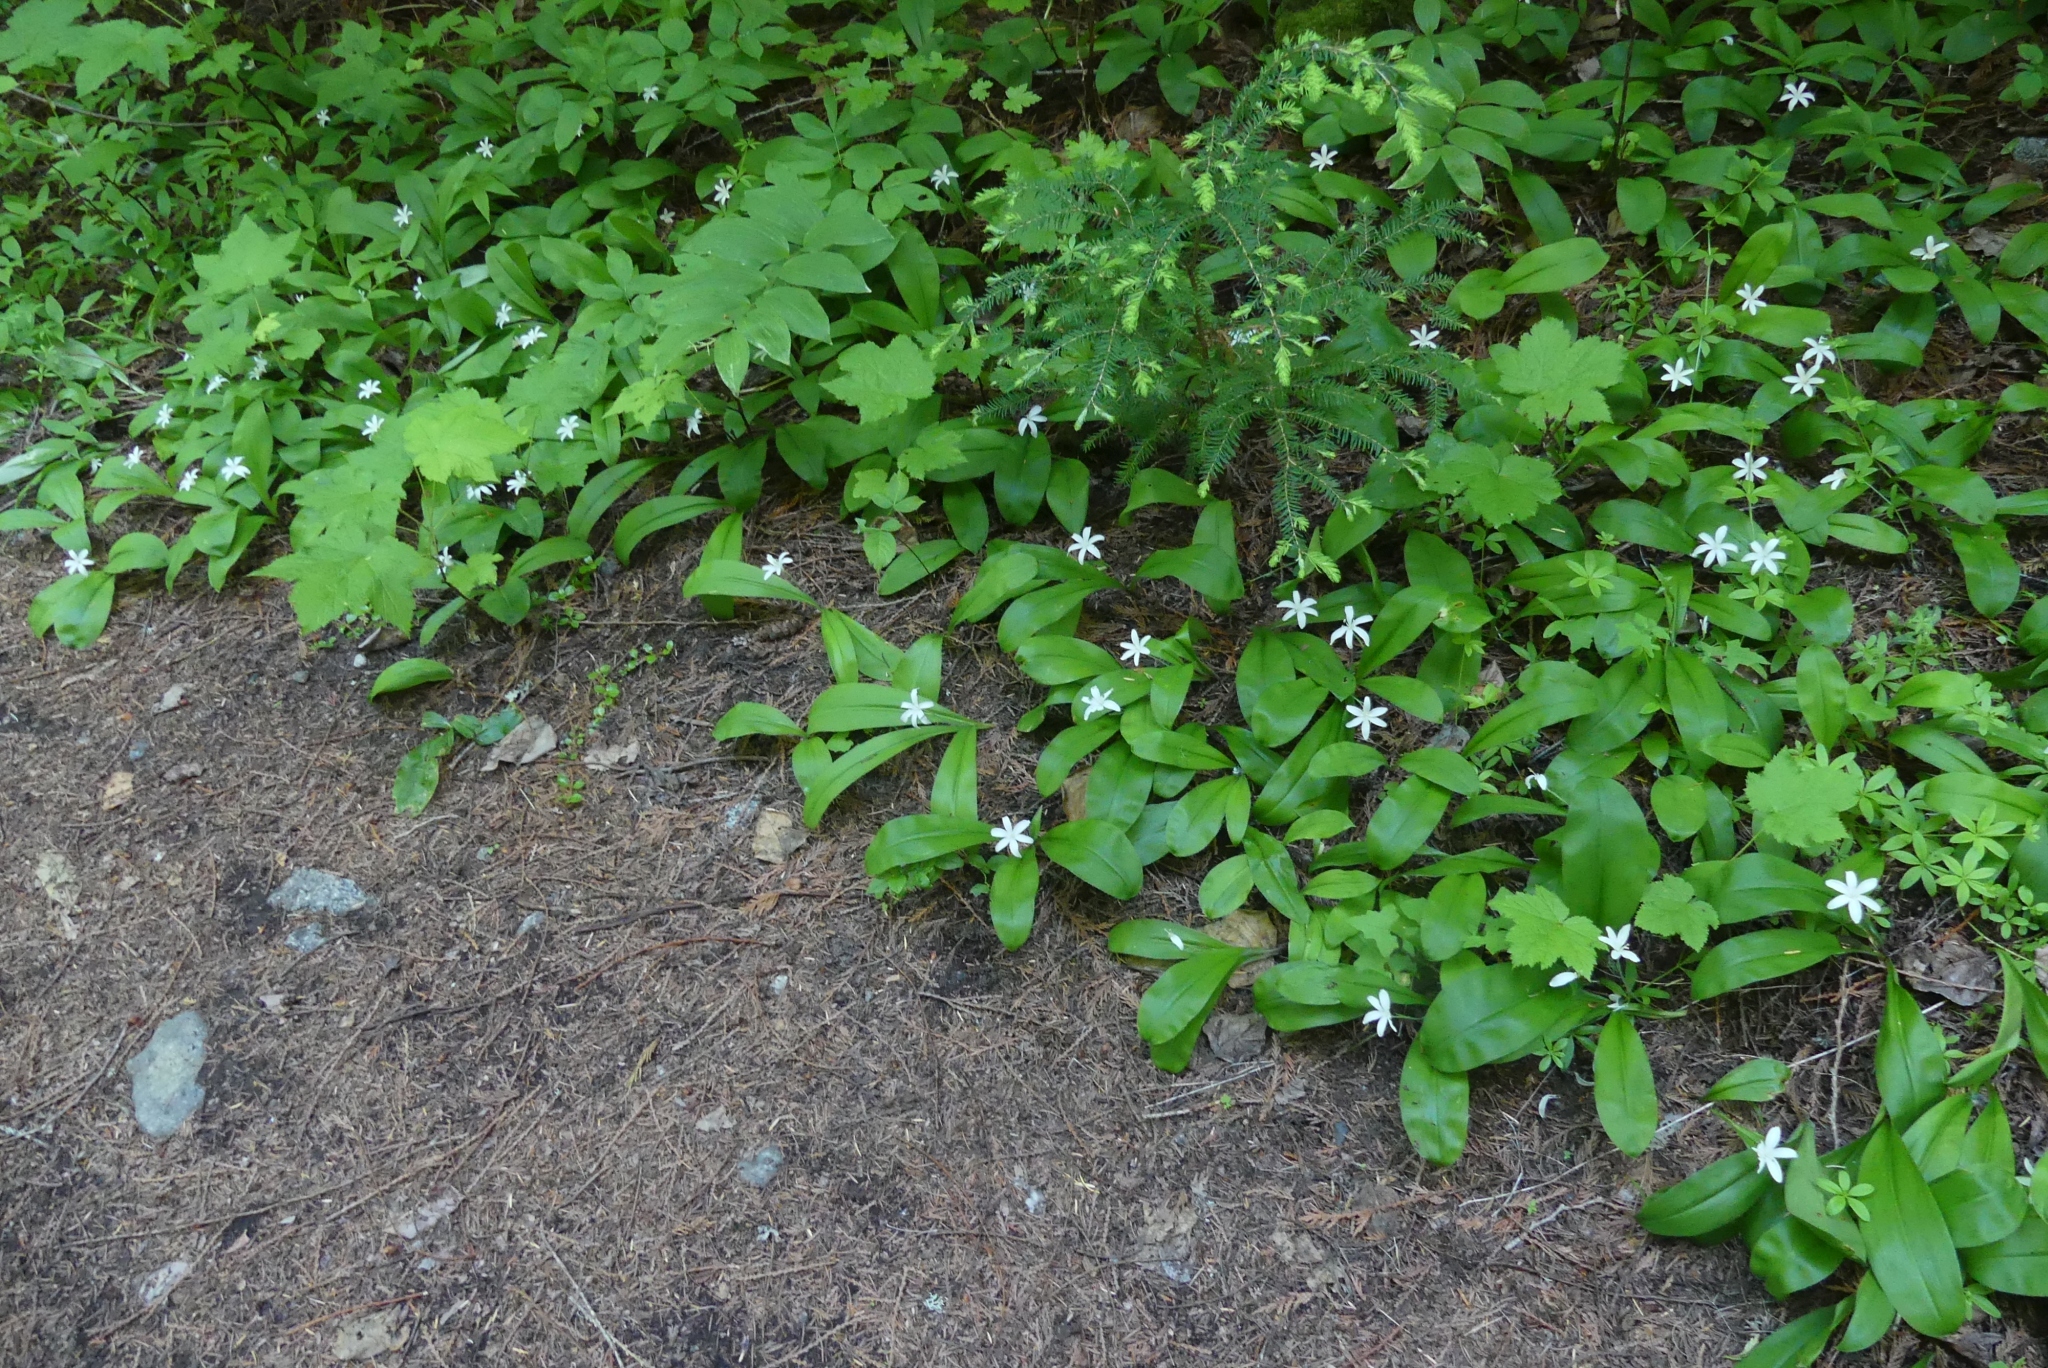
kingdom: Plantae
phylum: Tracheophyta
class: Liliopsida
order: Liliales
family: Liliaceae
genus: Clintonia
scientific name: Clintonia uniflora
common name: Queen's cup
